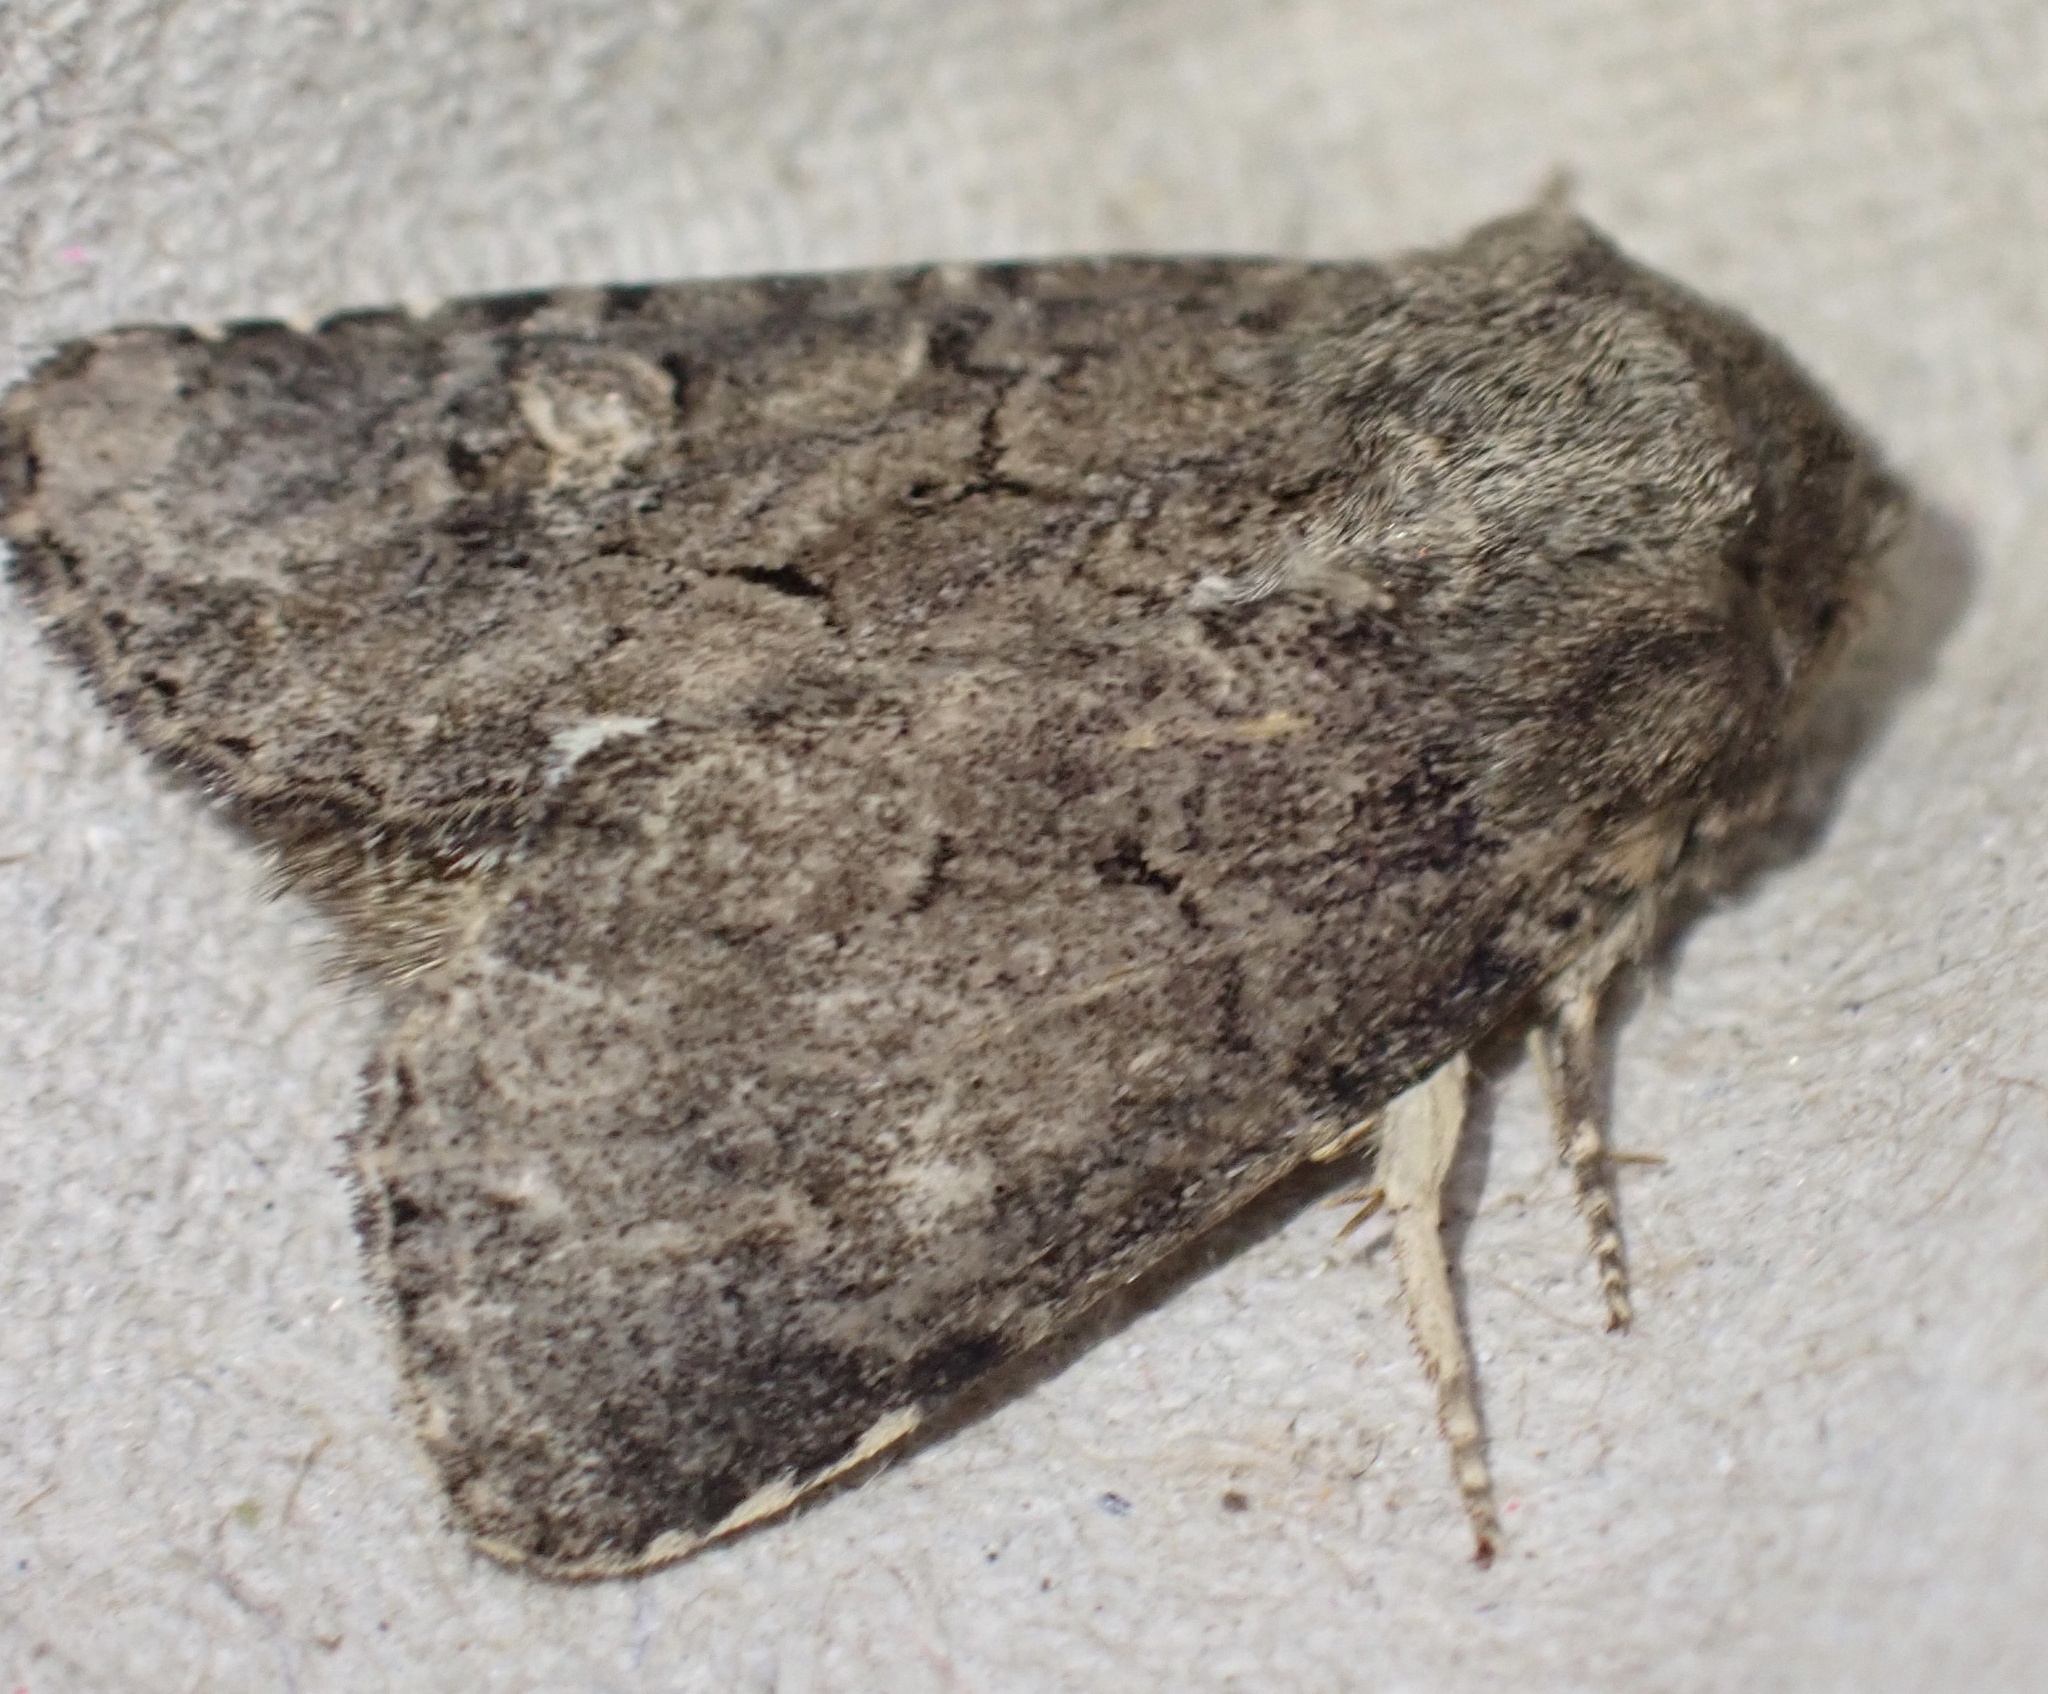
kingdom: Animalia
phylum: Arthropoda
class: Insecta
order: Lepidoptera
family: Noctuidae
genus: Luperina
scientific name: Luperina testacea
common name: Flounced rustic
